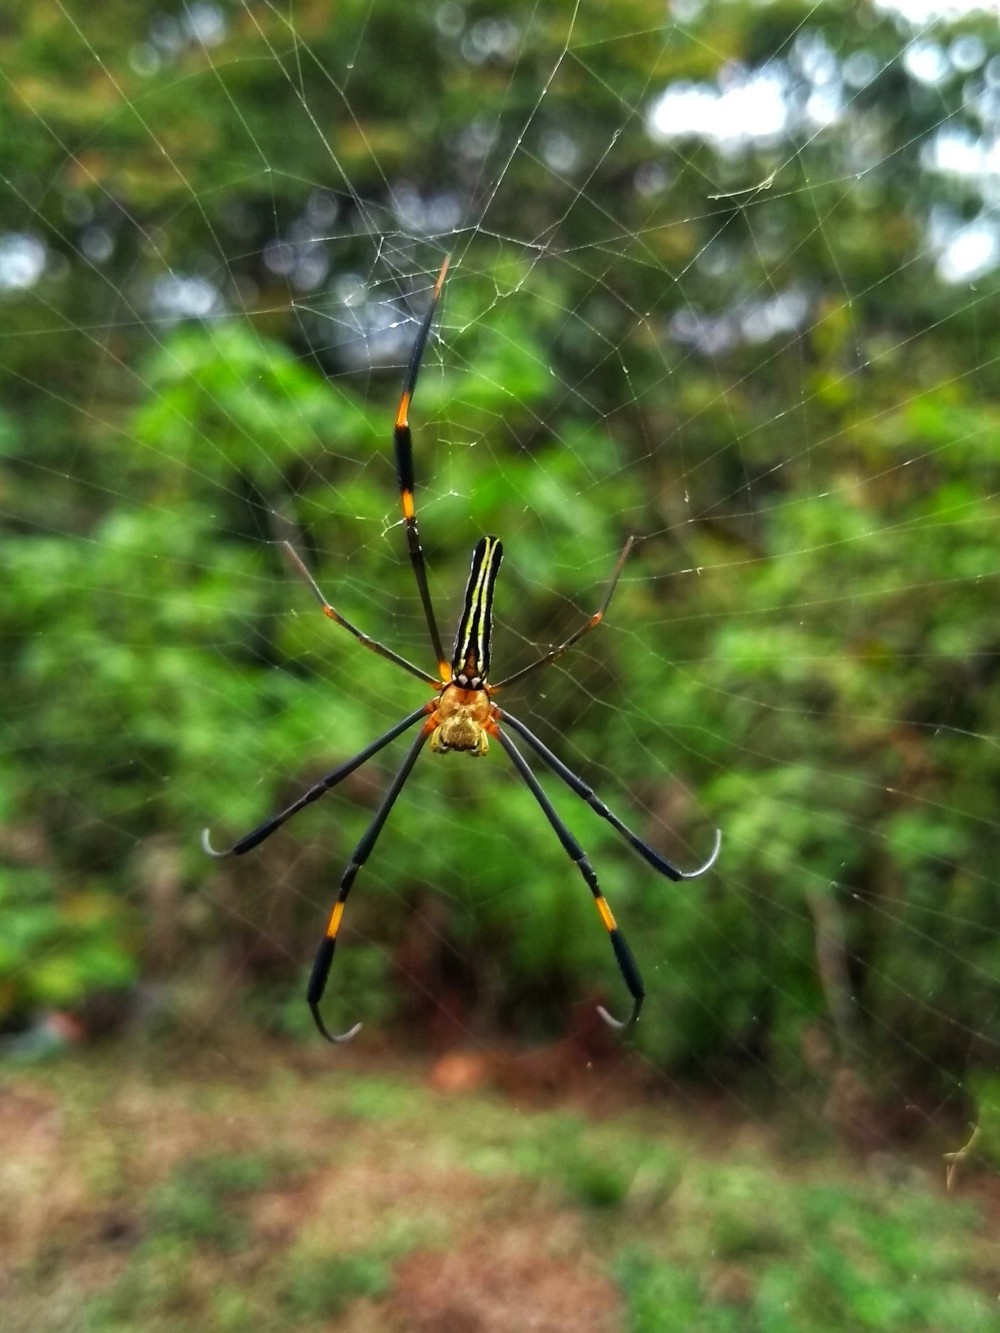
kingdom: Animalia
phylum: Arthropoda
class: Arachnida
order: Araneae
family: Araneidae
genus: Nephila
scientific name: Nephila pilipes
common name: Giant golden orb weaver
